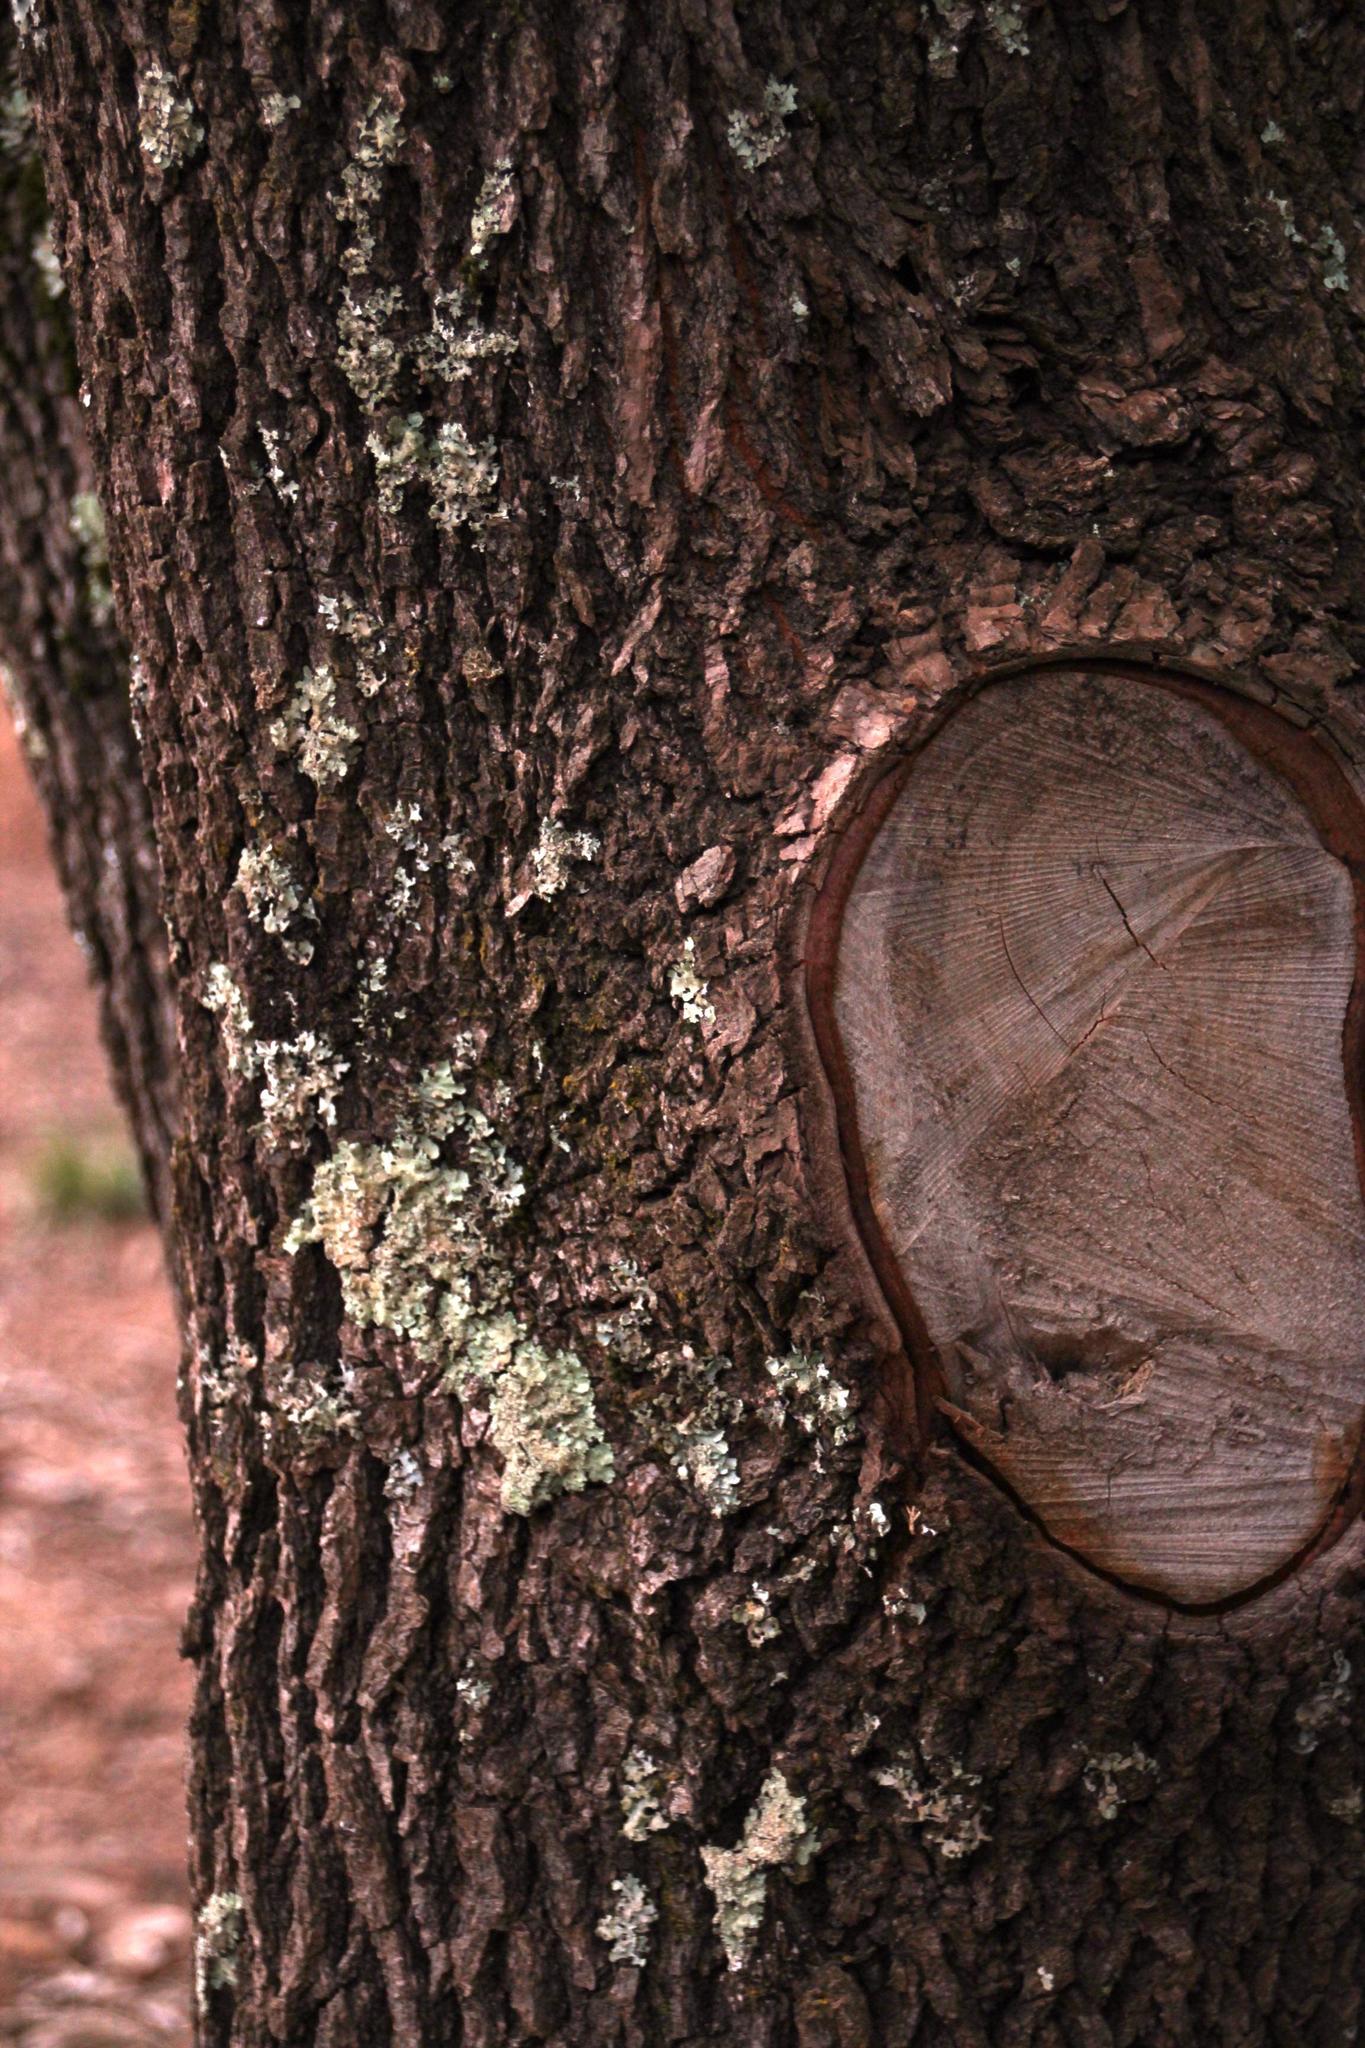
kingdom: Plantae
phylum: Tracheophyta
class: Magnoliopsida
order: Laurales
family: Lauraceae
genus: Cinnamomum
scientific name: Cinnamomum camphora
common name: Camphortree
